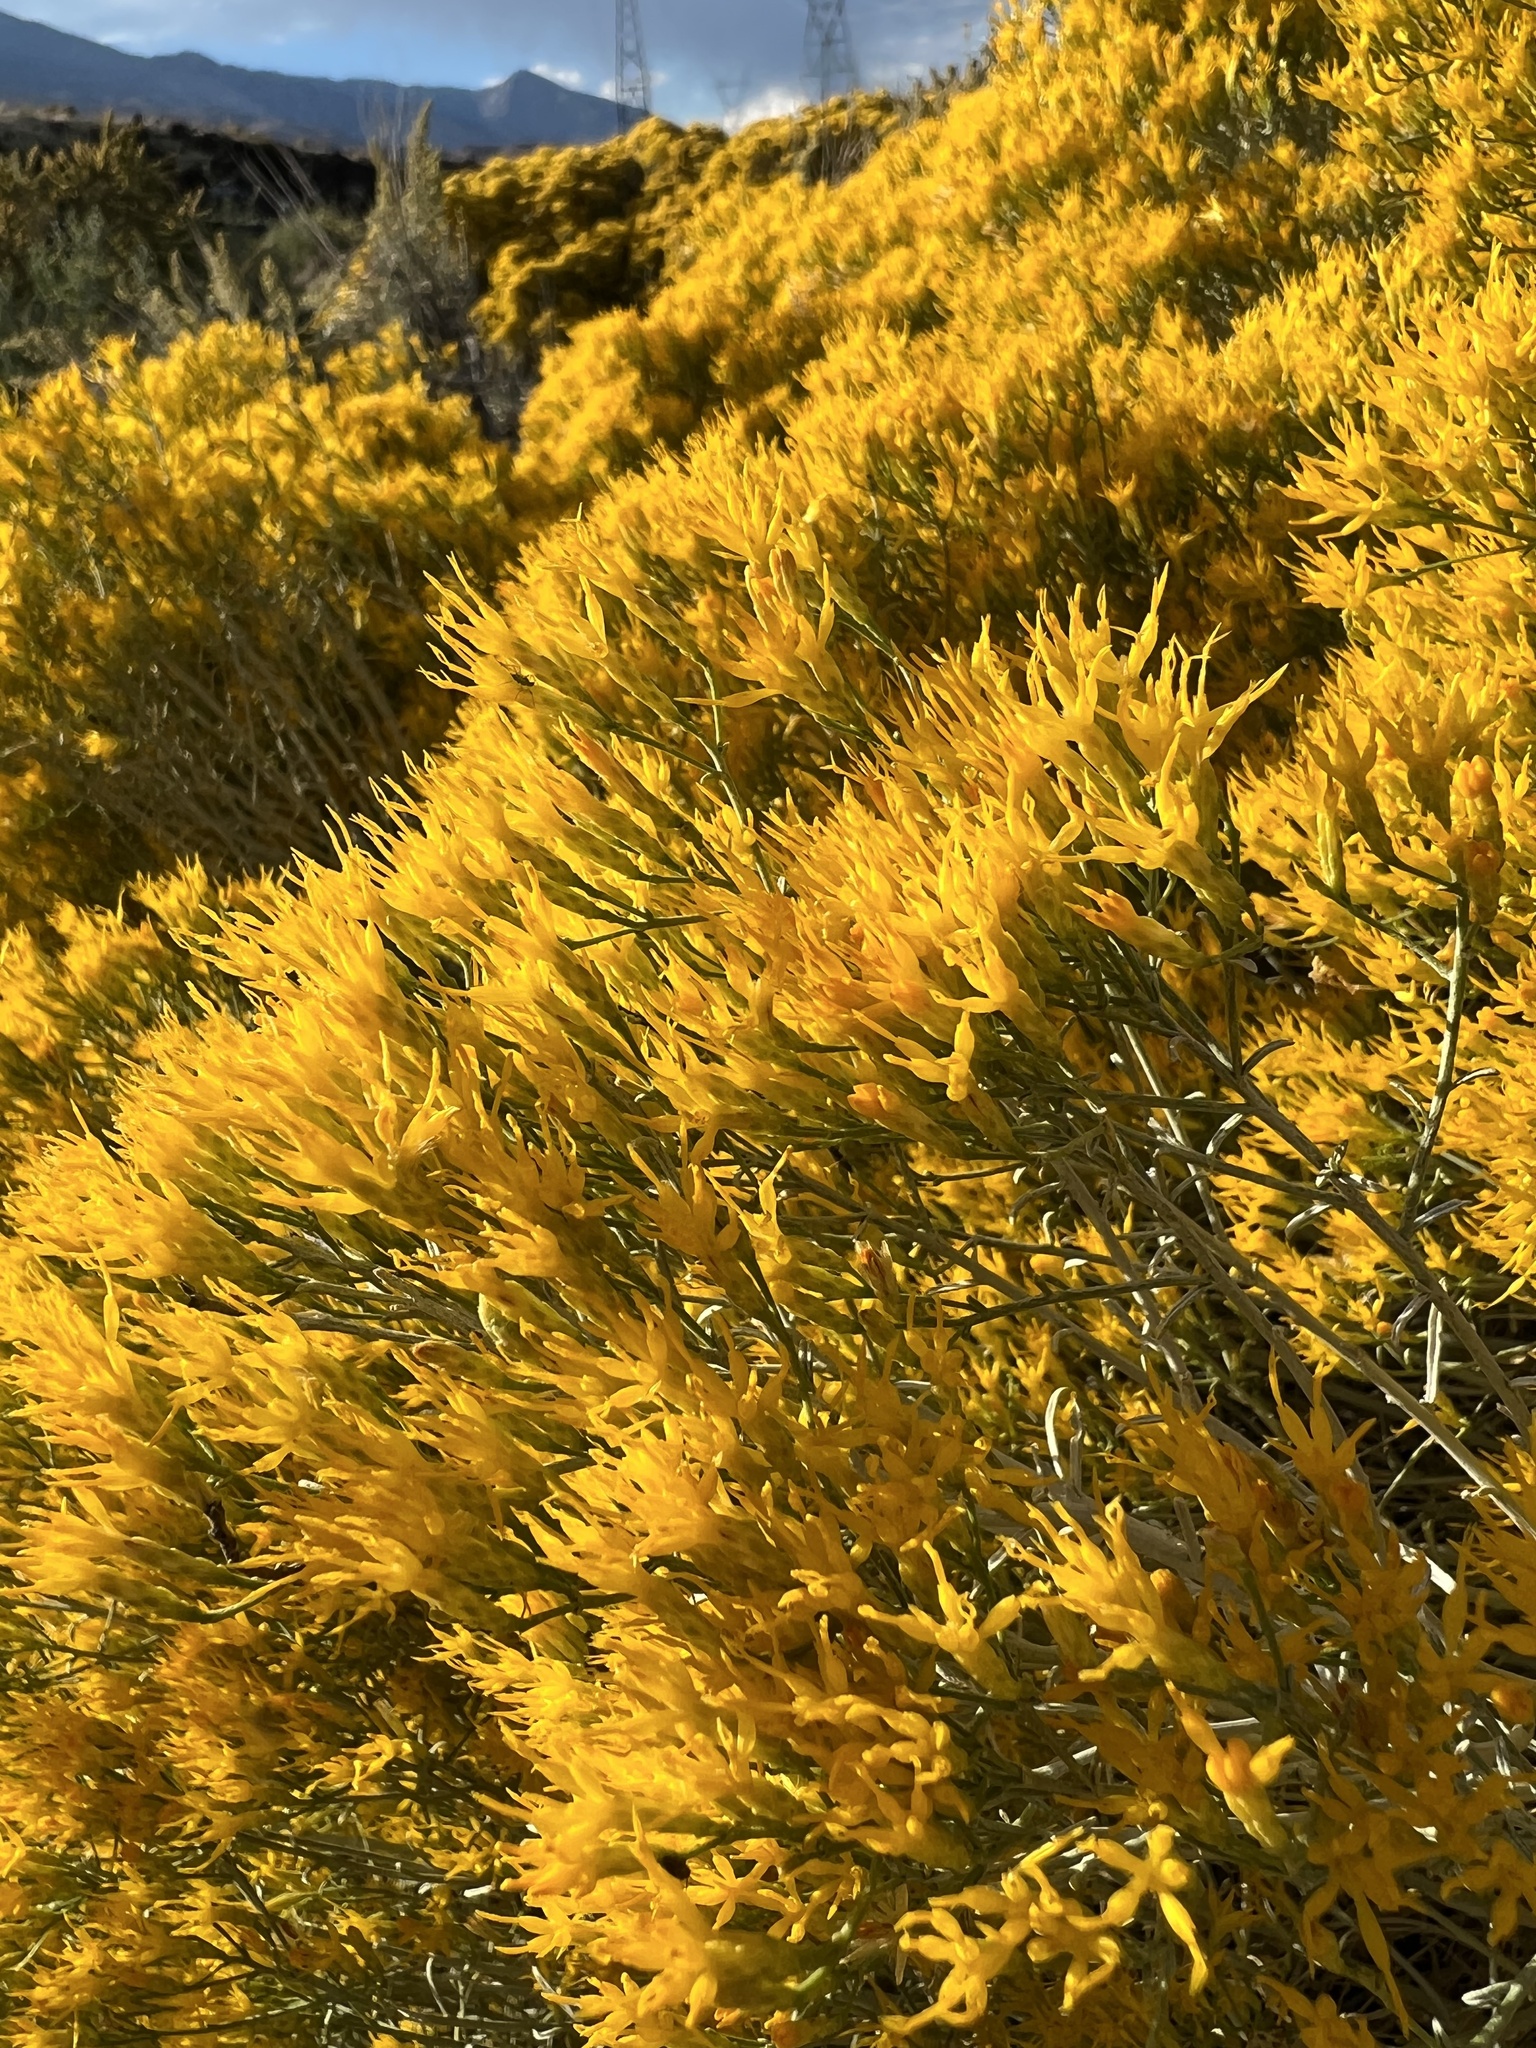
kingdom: Plantae
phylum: Tracheophyta
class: Magnoliopsida
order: Asterales
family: Asteraceae
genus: Ericameria
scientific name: Ericameria nauseosa
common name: Rubber rabbitbrush
